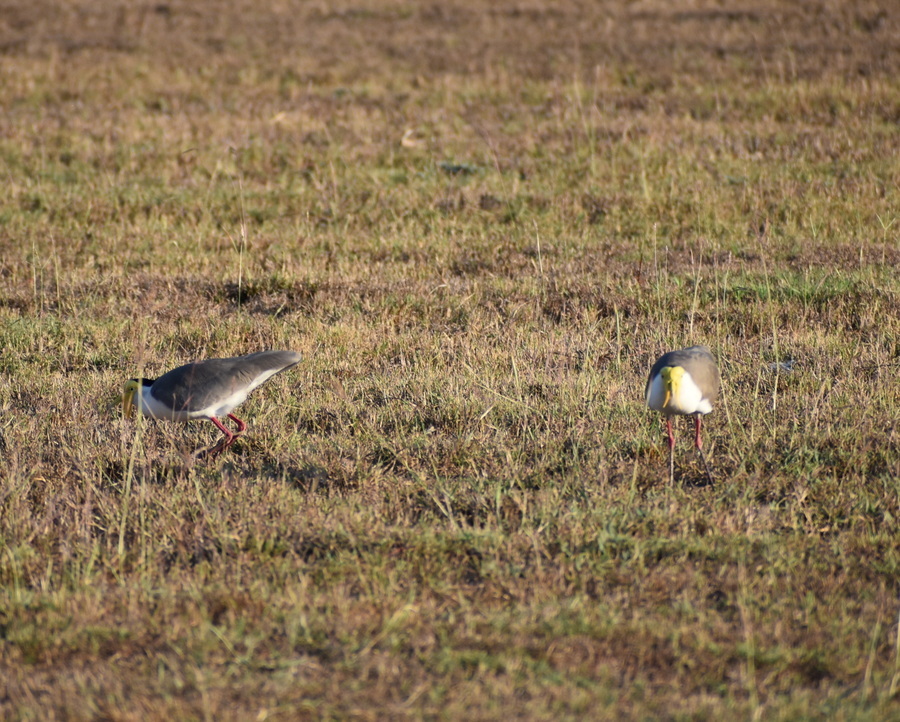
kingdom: Animalia
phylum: Chordata
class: Aves
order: Charadriiformes
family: Charadriidae
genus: Vanellus
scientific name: Vanellus miles
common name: Masked lapwing
